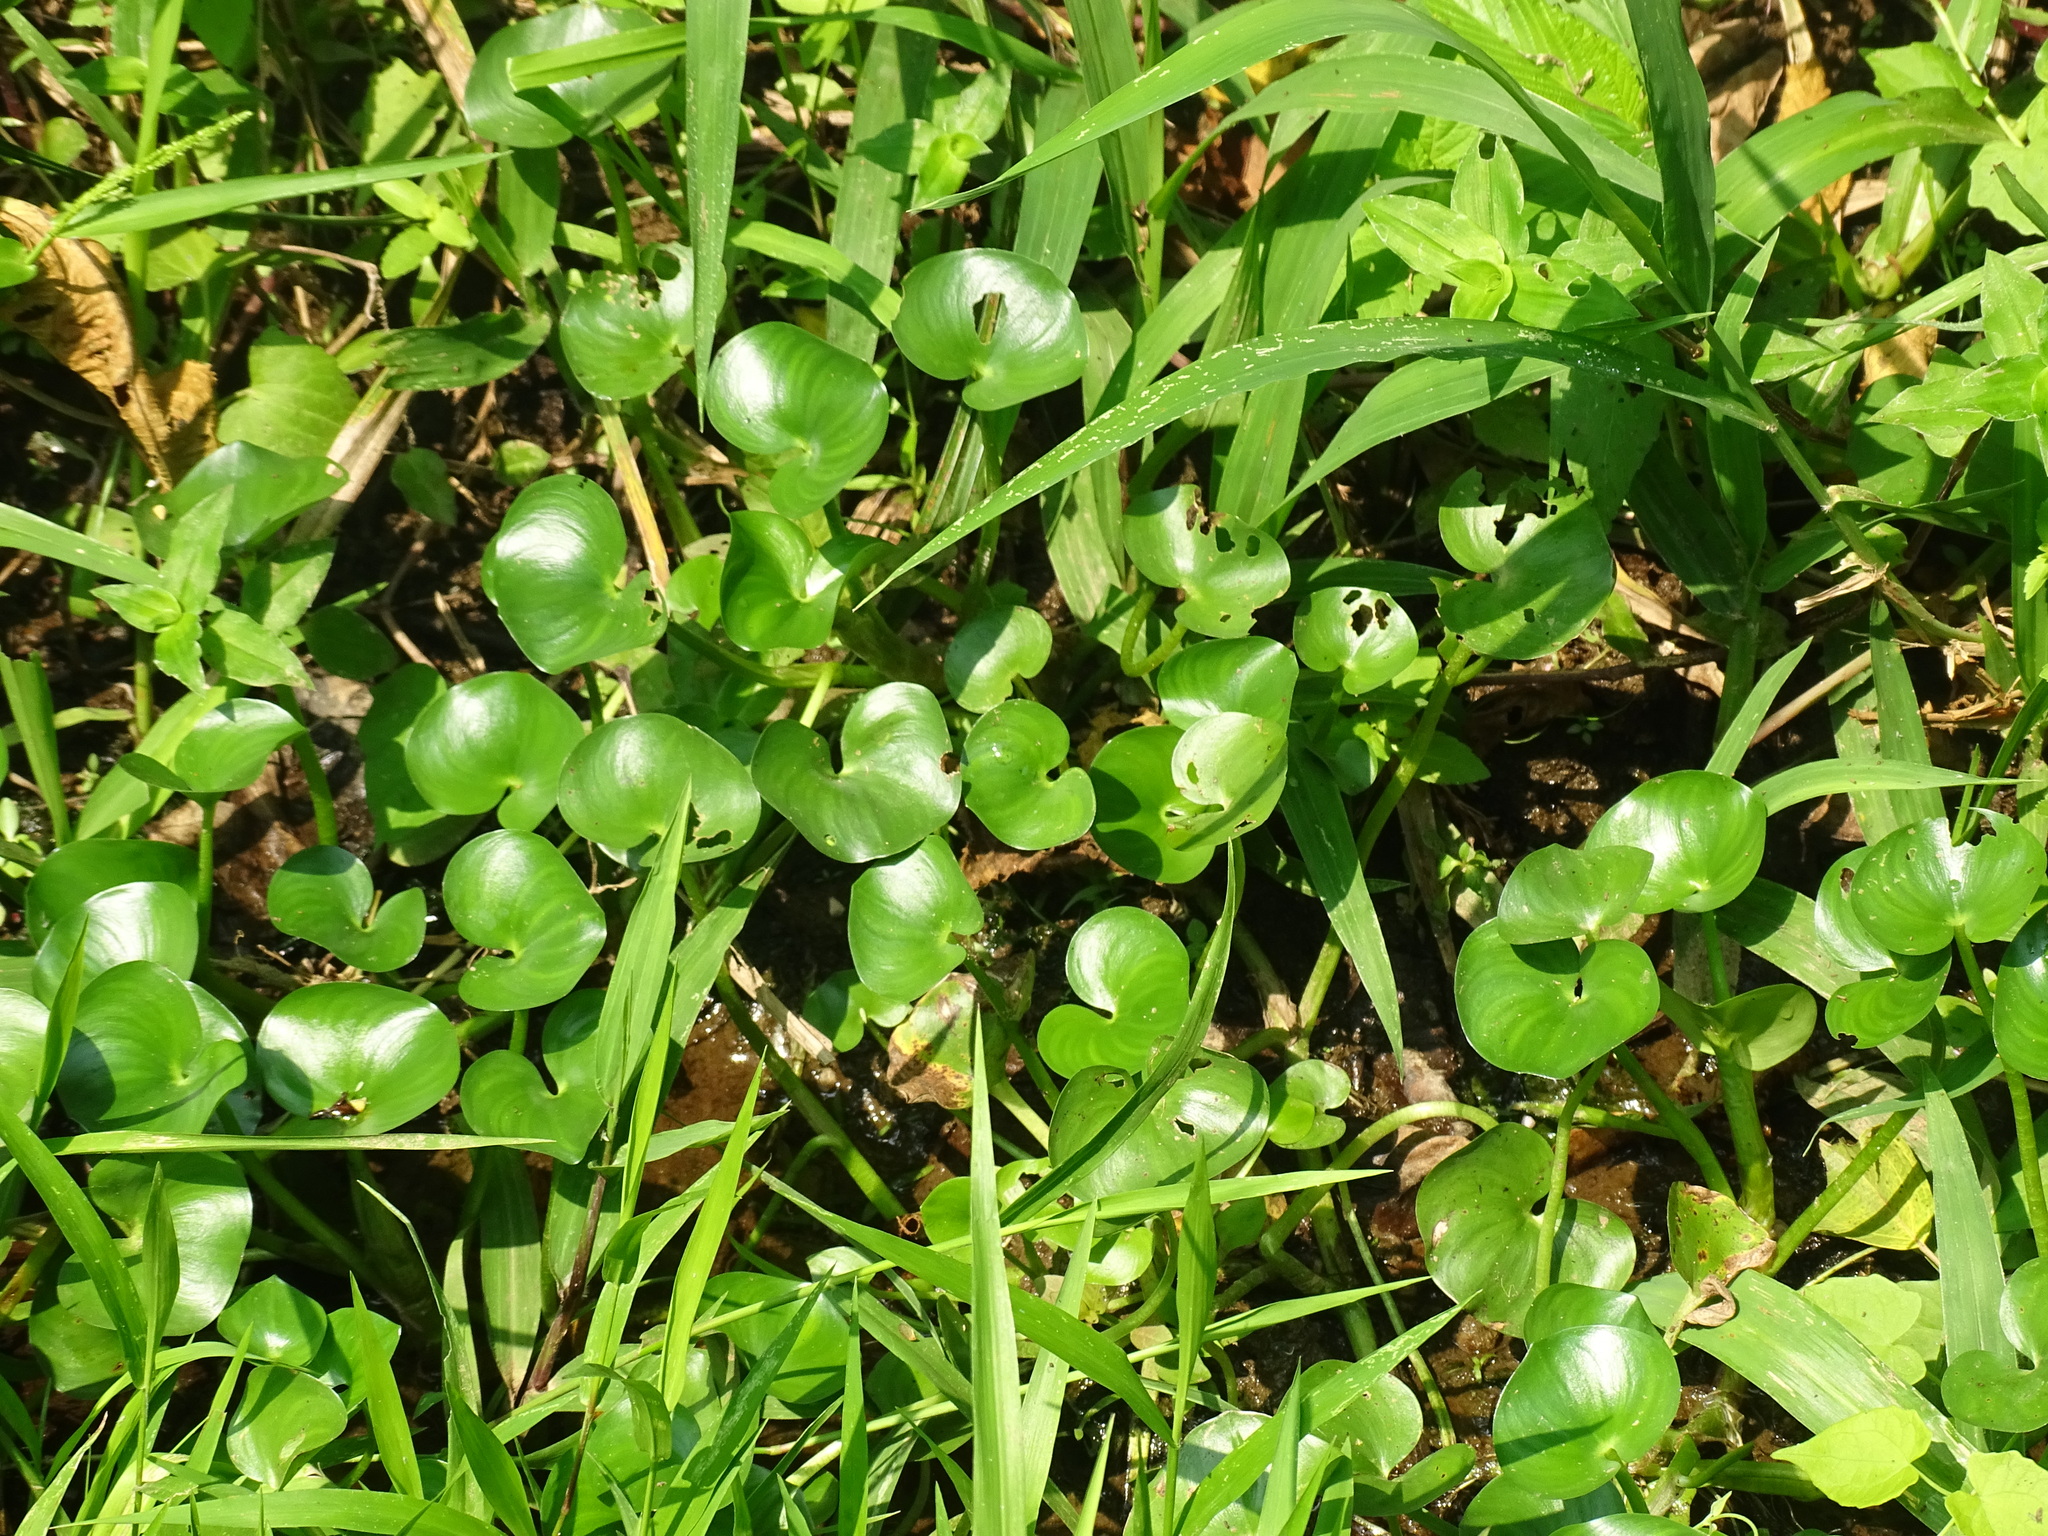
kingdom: Plantae
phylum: Tracheophyta
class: Liliopsida
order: Commelinales
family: Pontederiaceae
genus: Heteranthera
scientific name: Heteranthera reniformis
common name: Kidneyleaf mudplantain
